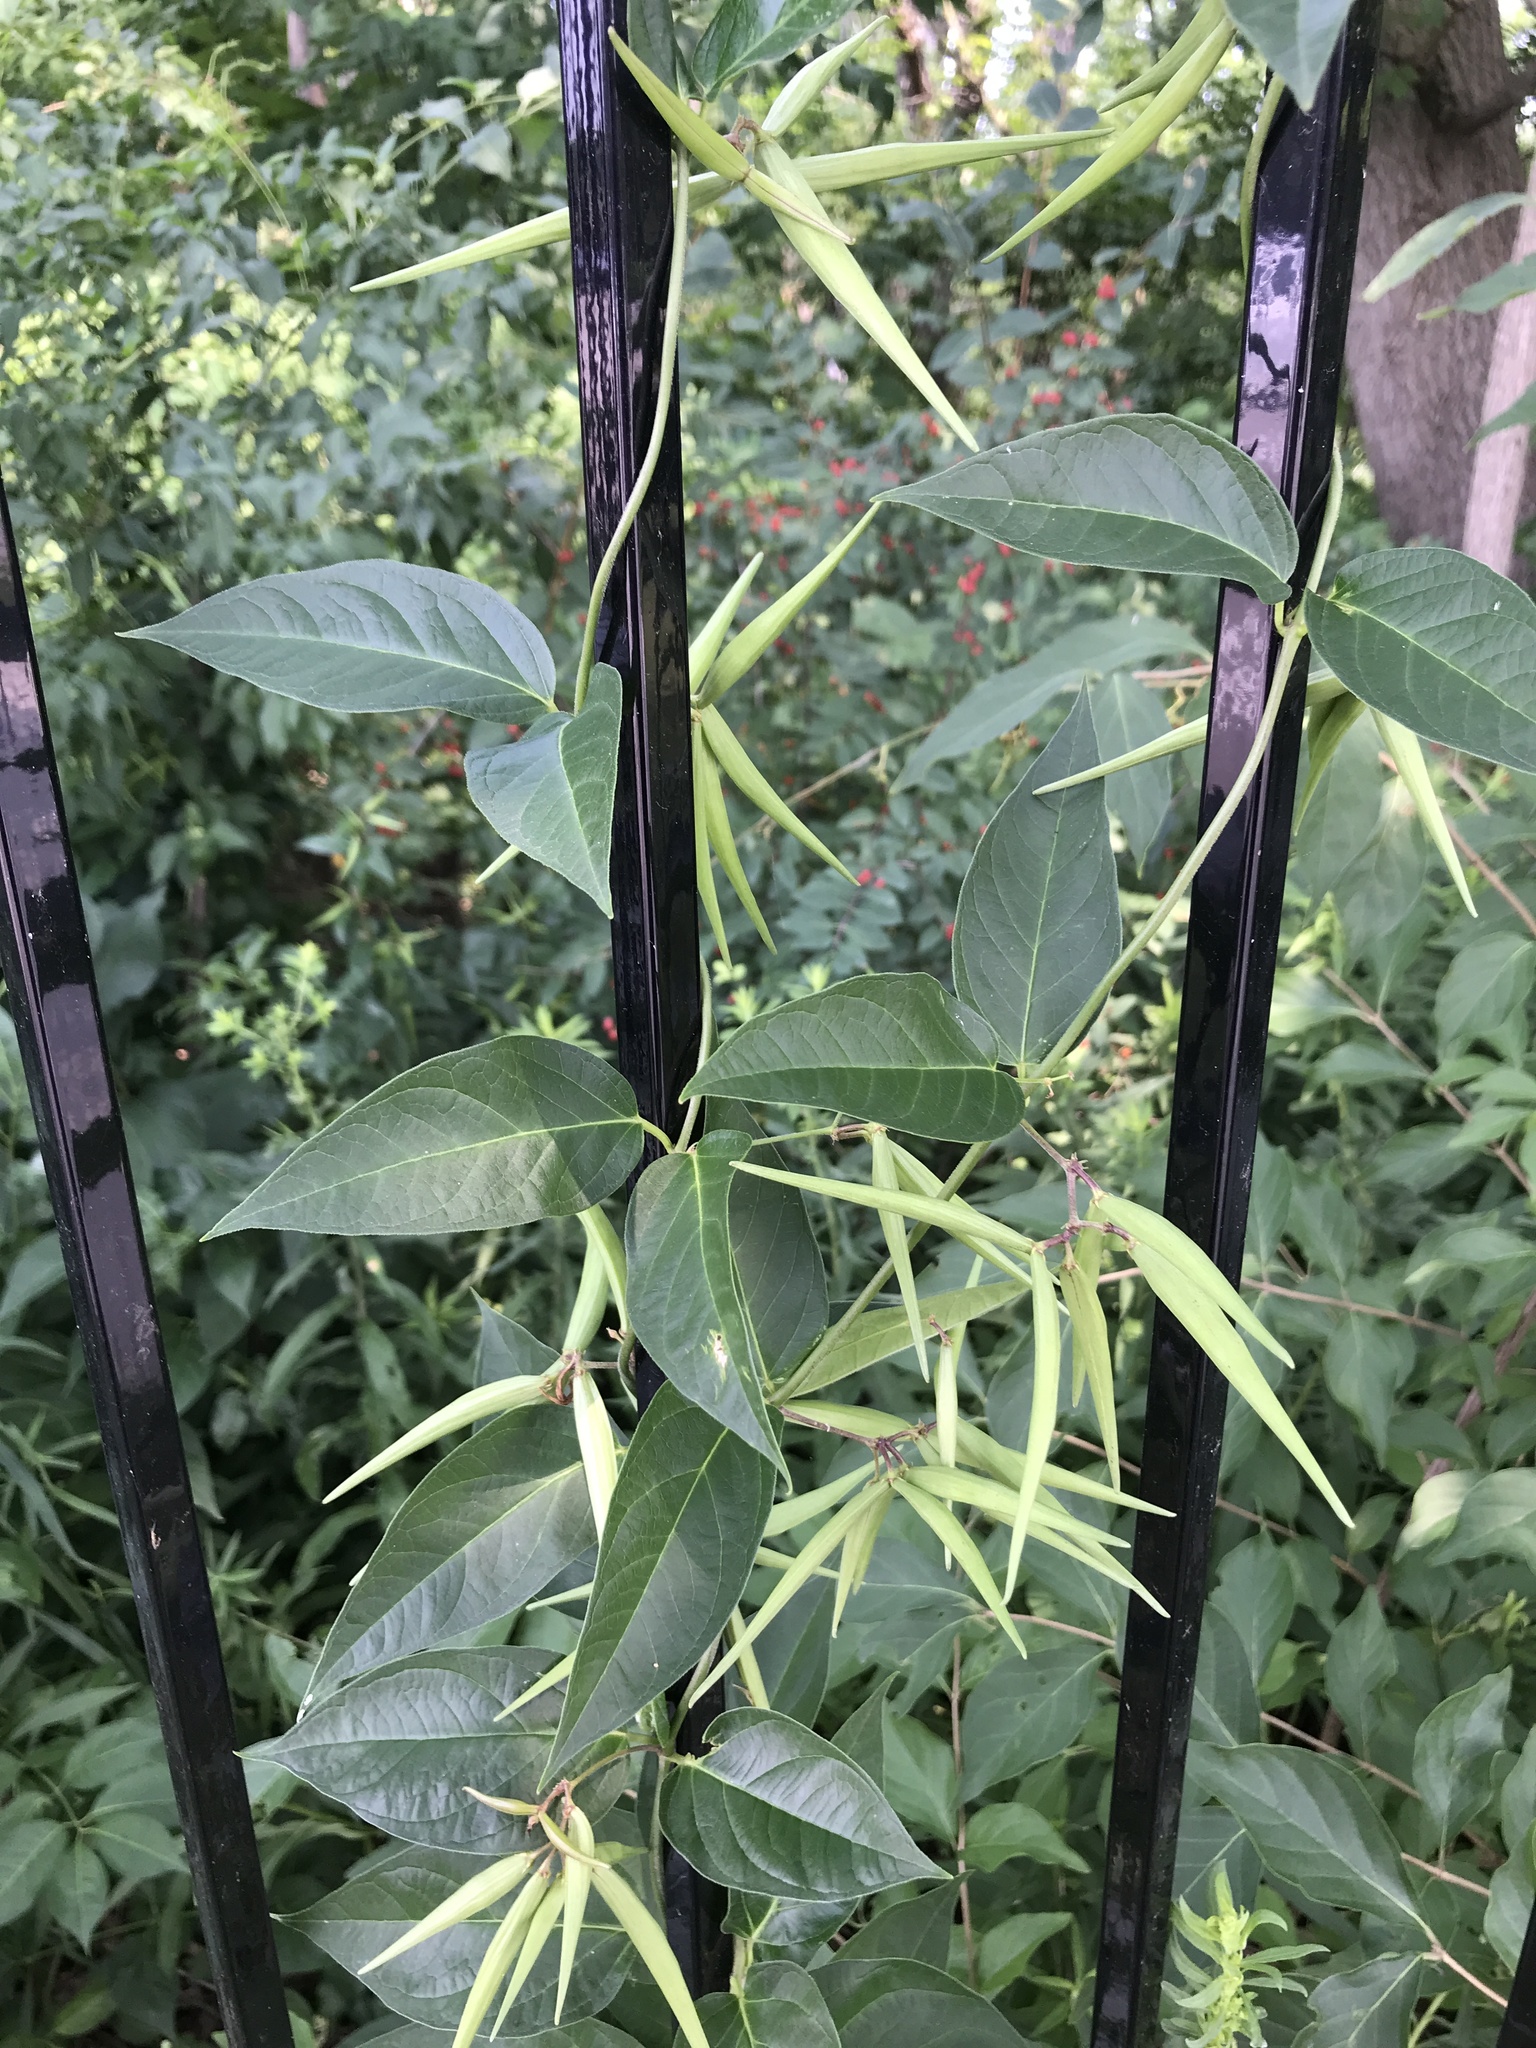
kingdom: Plantae
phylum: Tracheophyta
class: Magnoliopsida
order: Gentianales
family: Apocynaceae
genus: Vincetoxicum
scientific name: Vincetoxicum rossicum
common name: Dog-strangling vine
